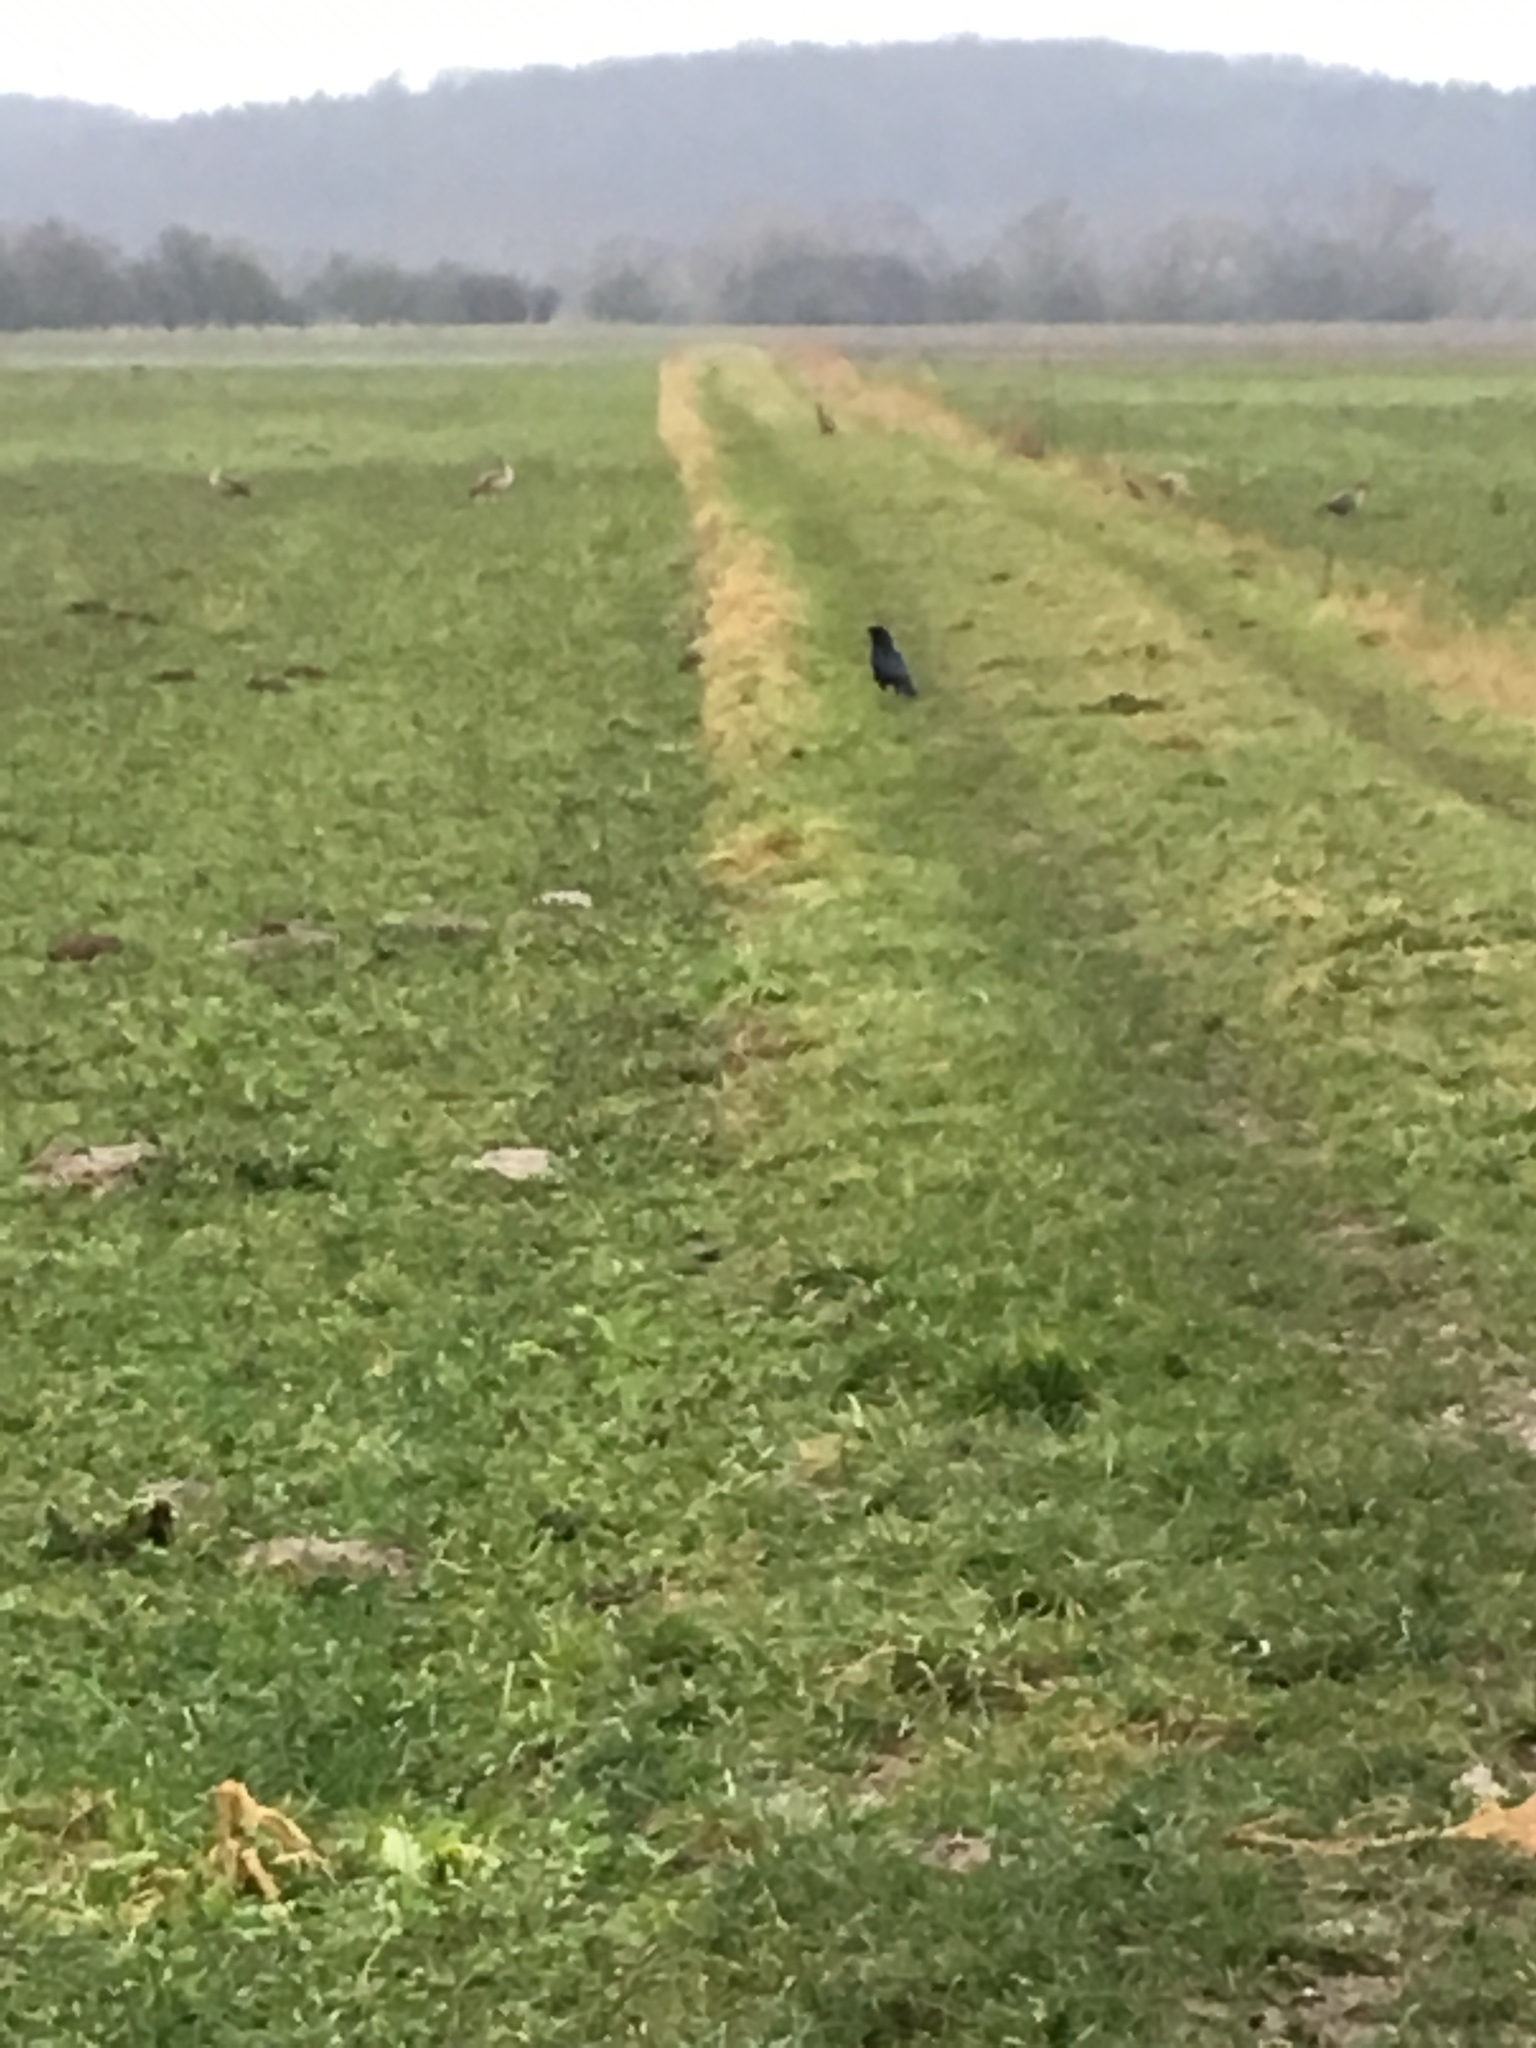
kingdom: Animalia
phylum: Chordata
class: Aves
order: Passeriformes
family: Corvidae
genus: Corvus
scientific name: Corvus corone
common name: Carrion crow
